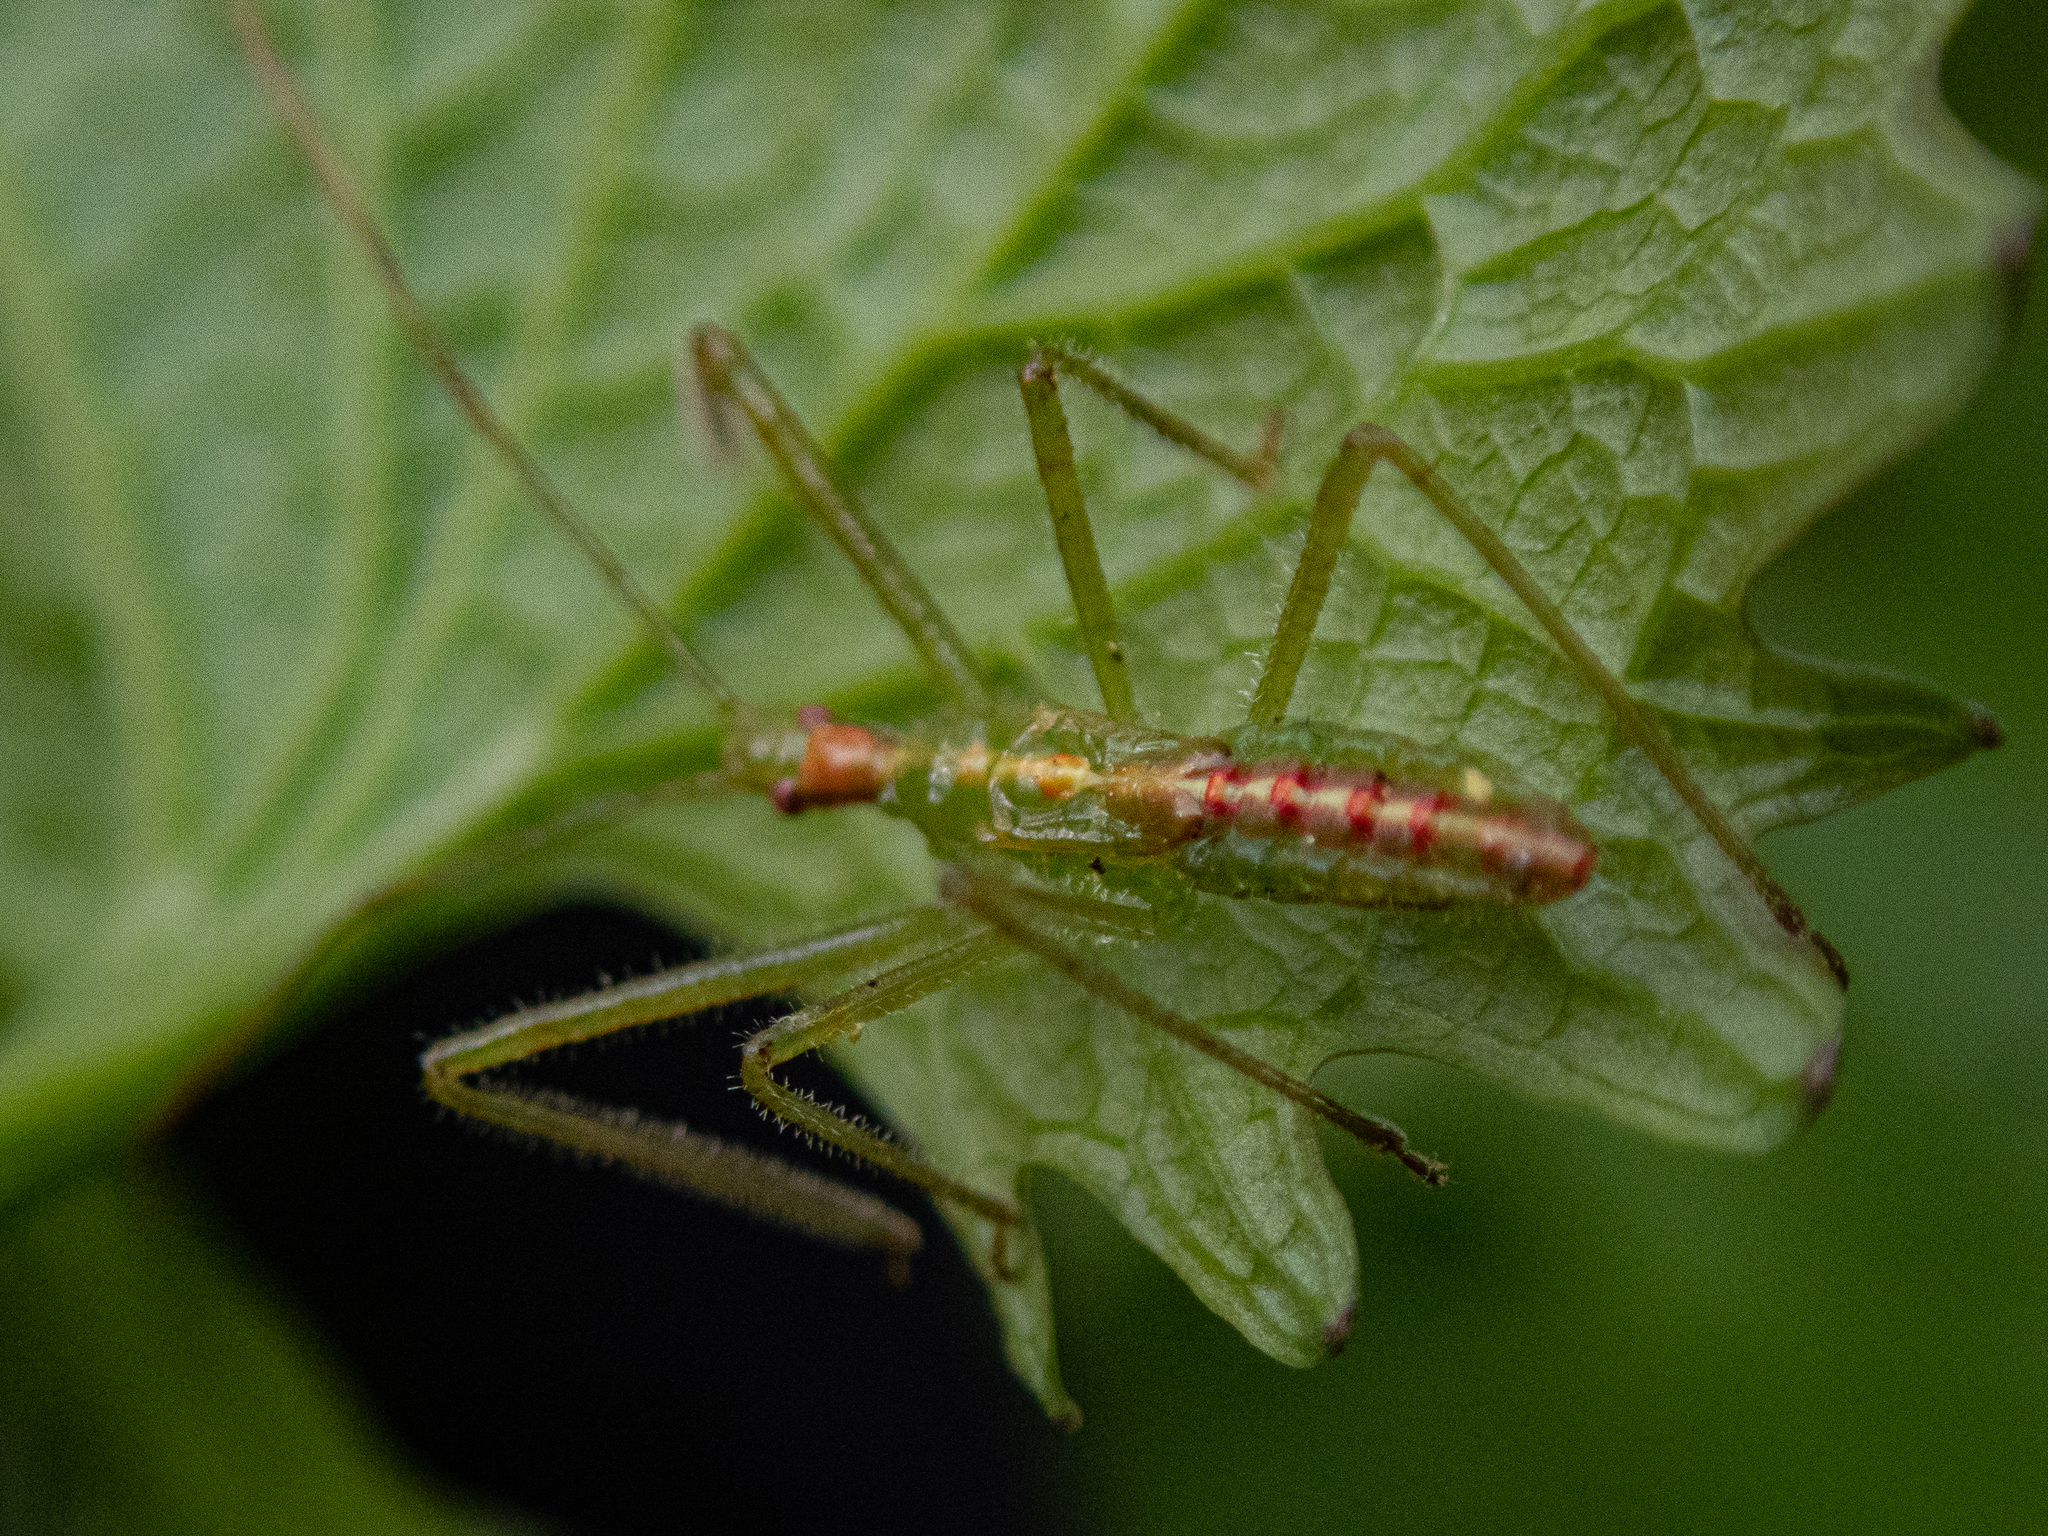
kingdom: Animalia
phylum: Arthropoda
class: Insecta
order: Hemiptera
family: Reduviidae
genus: Zelus
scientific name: Zelus luridus
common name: Pale green assassin bug
